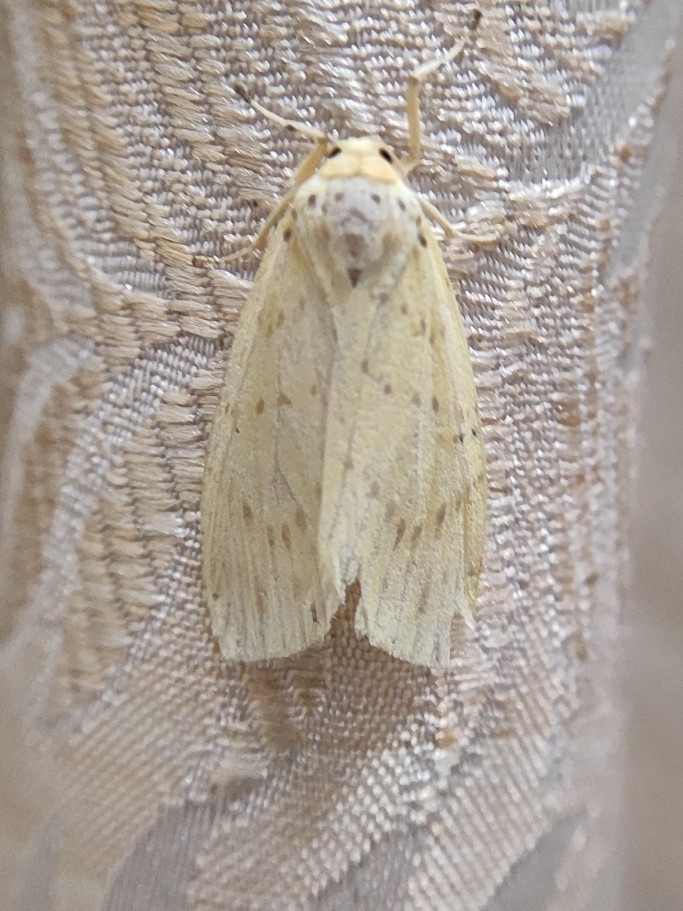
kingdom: Animalia
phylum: Arthropoda
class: Insecta
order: Lepidoptera
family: Erebidae
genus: Barsine
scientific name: Barsine defecta
